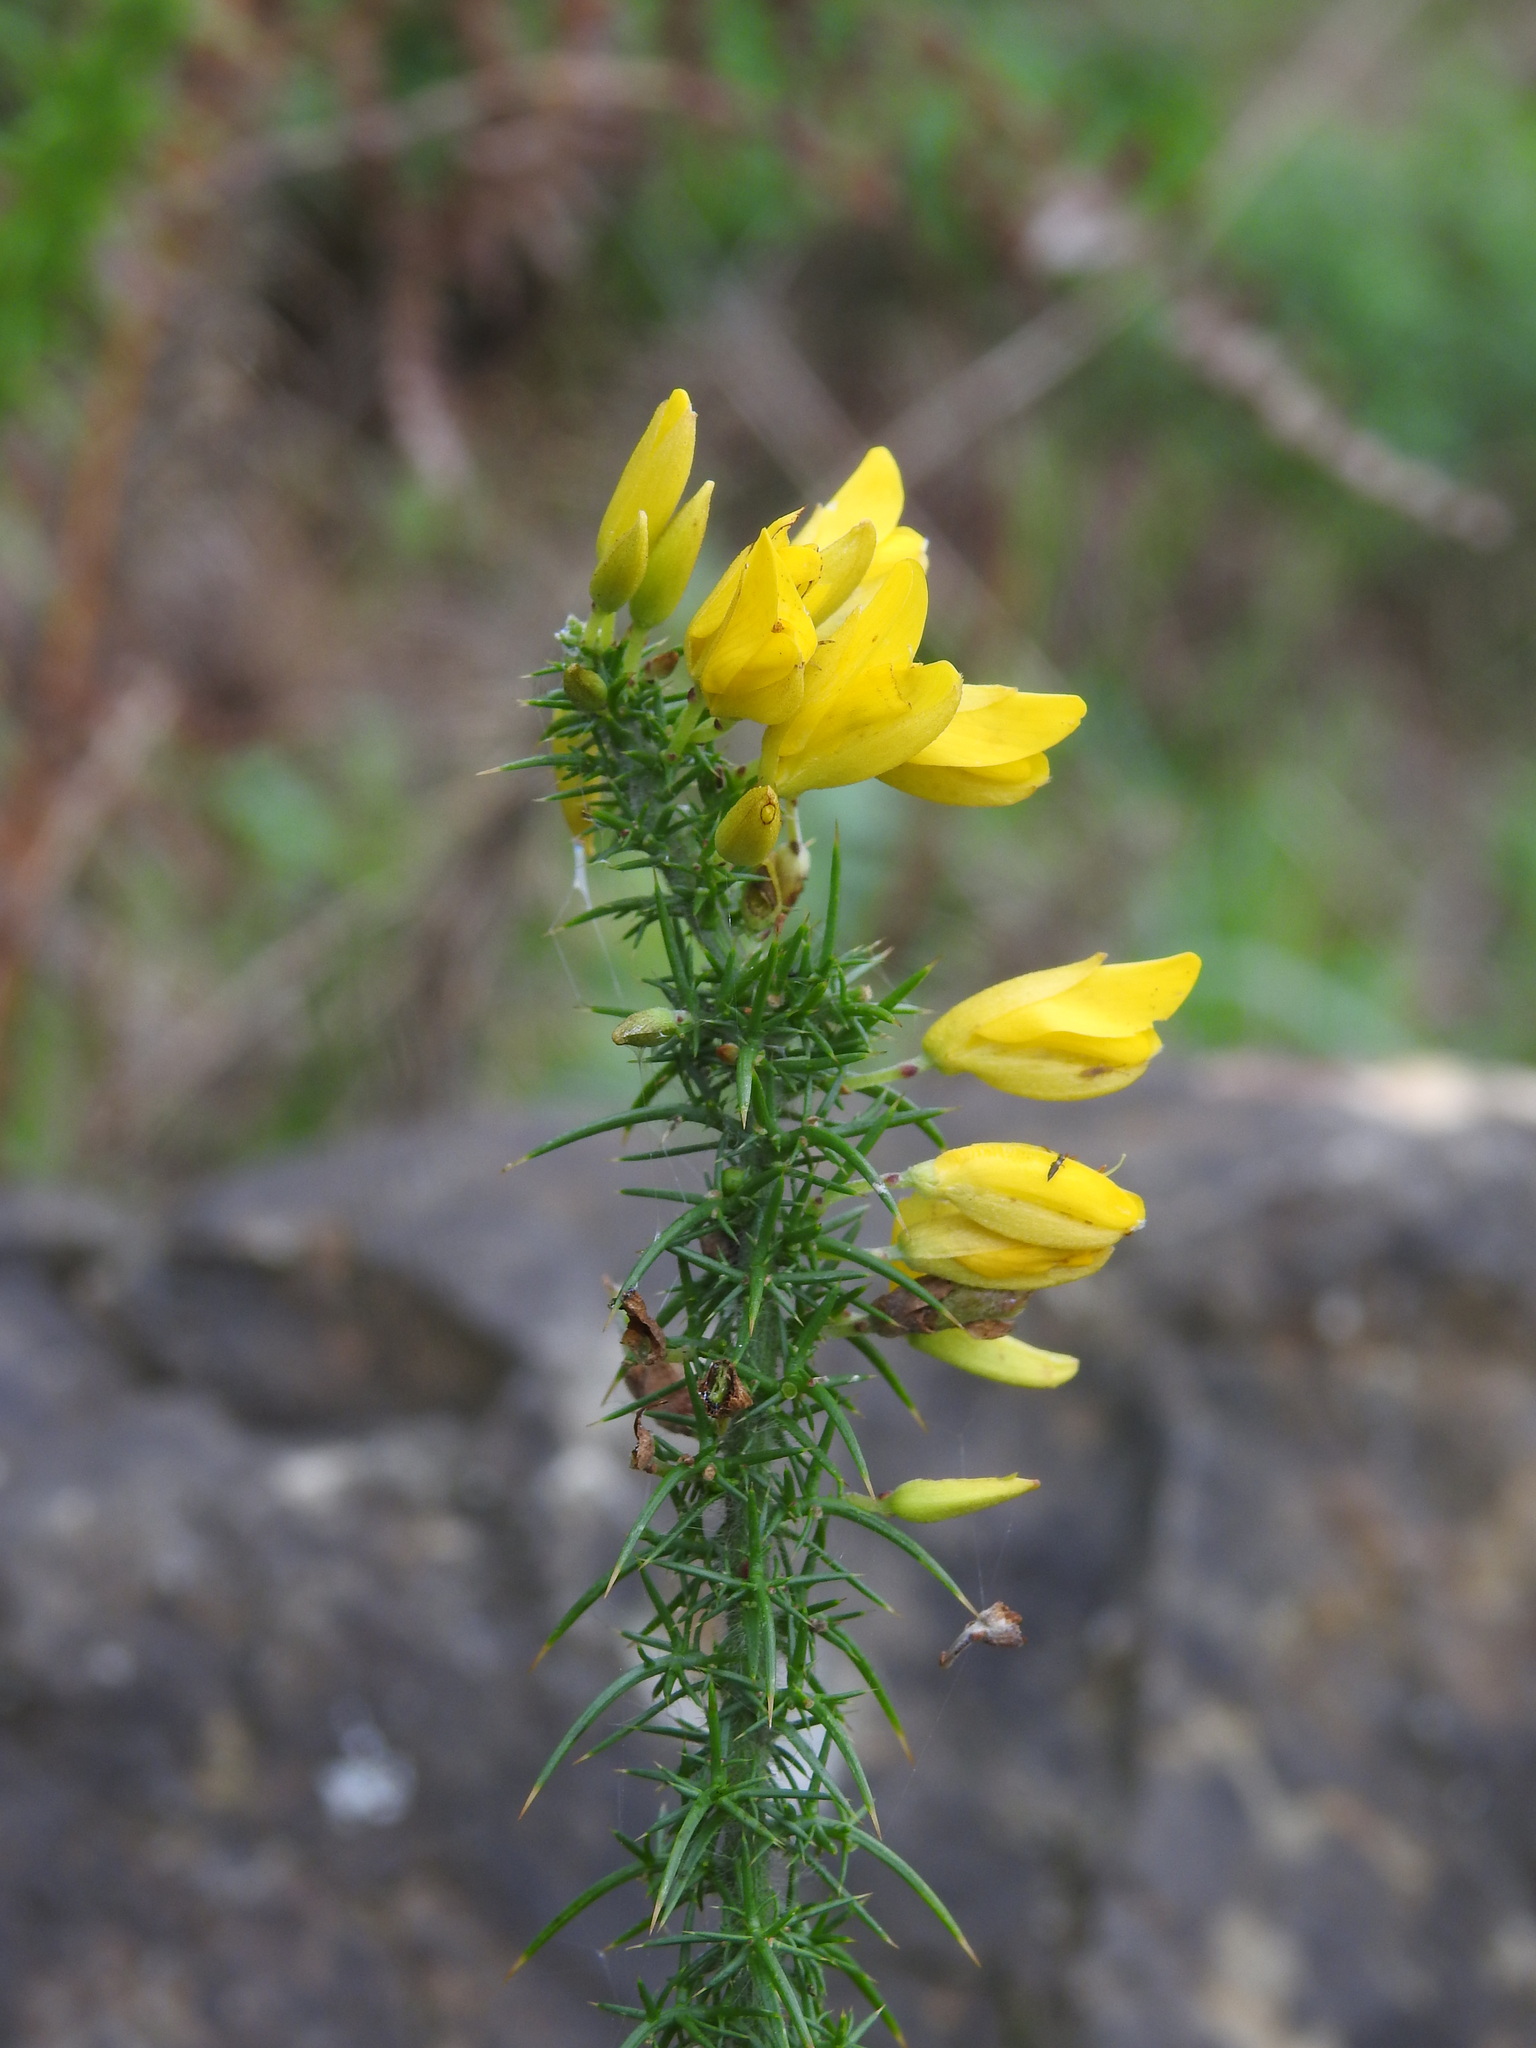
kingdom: Plantae
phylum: Tracheophyta
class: Magnoliopsida
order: Fabales
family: Fabaceae
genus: Ulex
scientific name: Ulex minor
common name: Dwarf gorse
